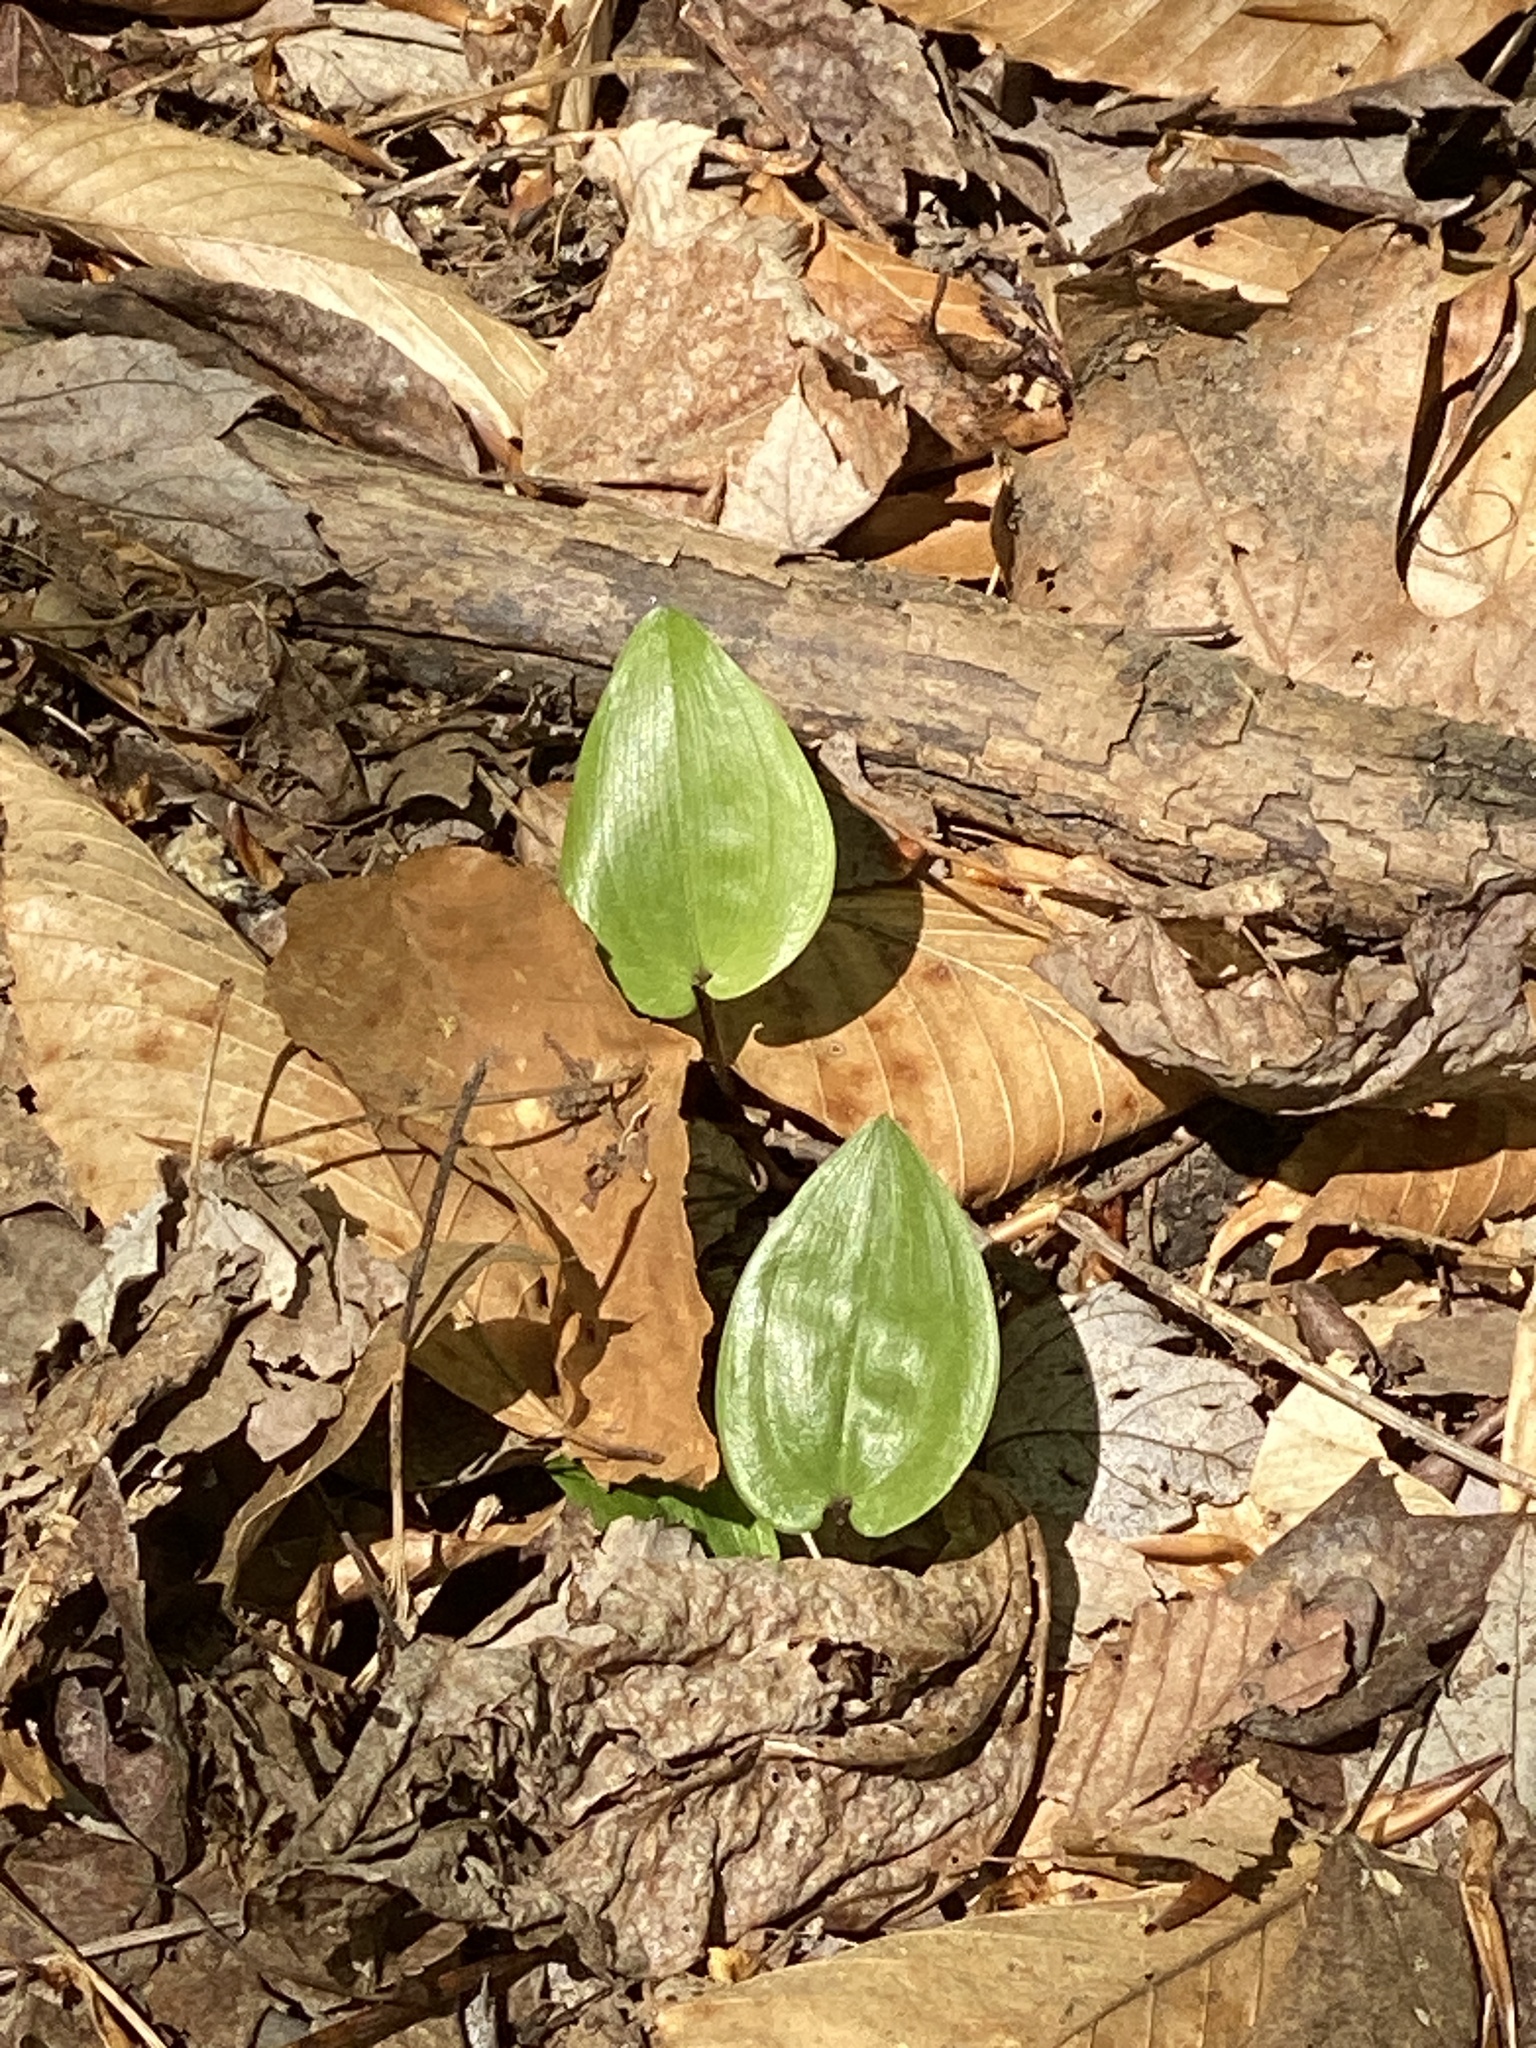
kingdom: Plantae
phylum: Tracheophyta
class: Liliopsida
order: Asparagales
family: Asparagaceae
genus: Maianthemum
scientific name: Maianthemum canadense
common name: False lily-of-the-valley
